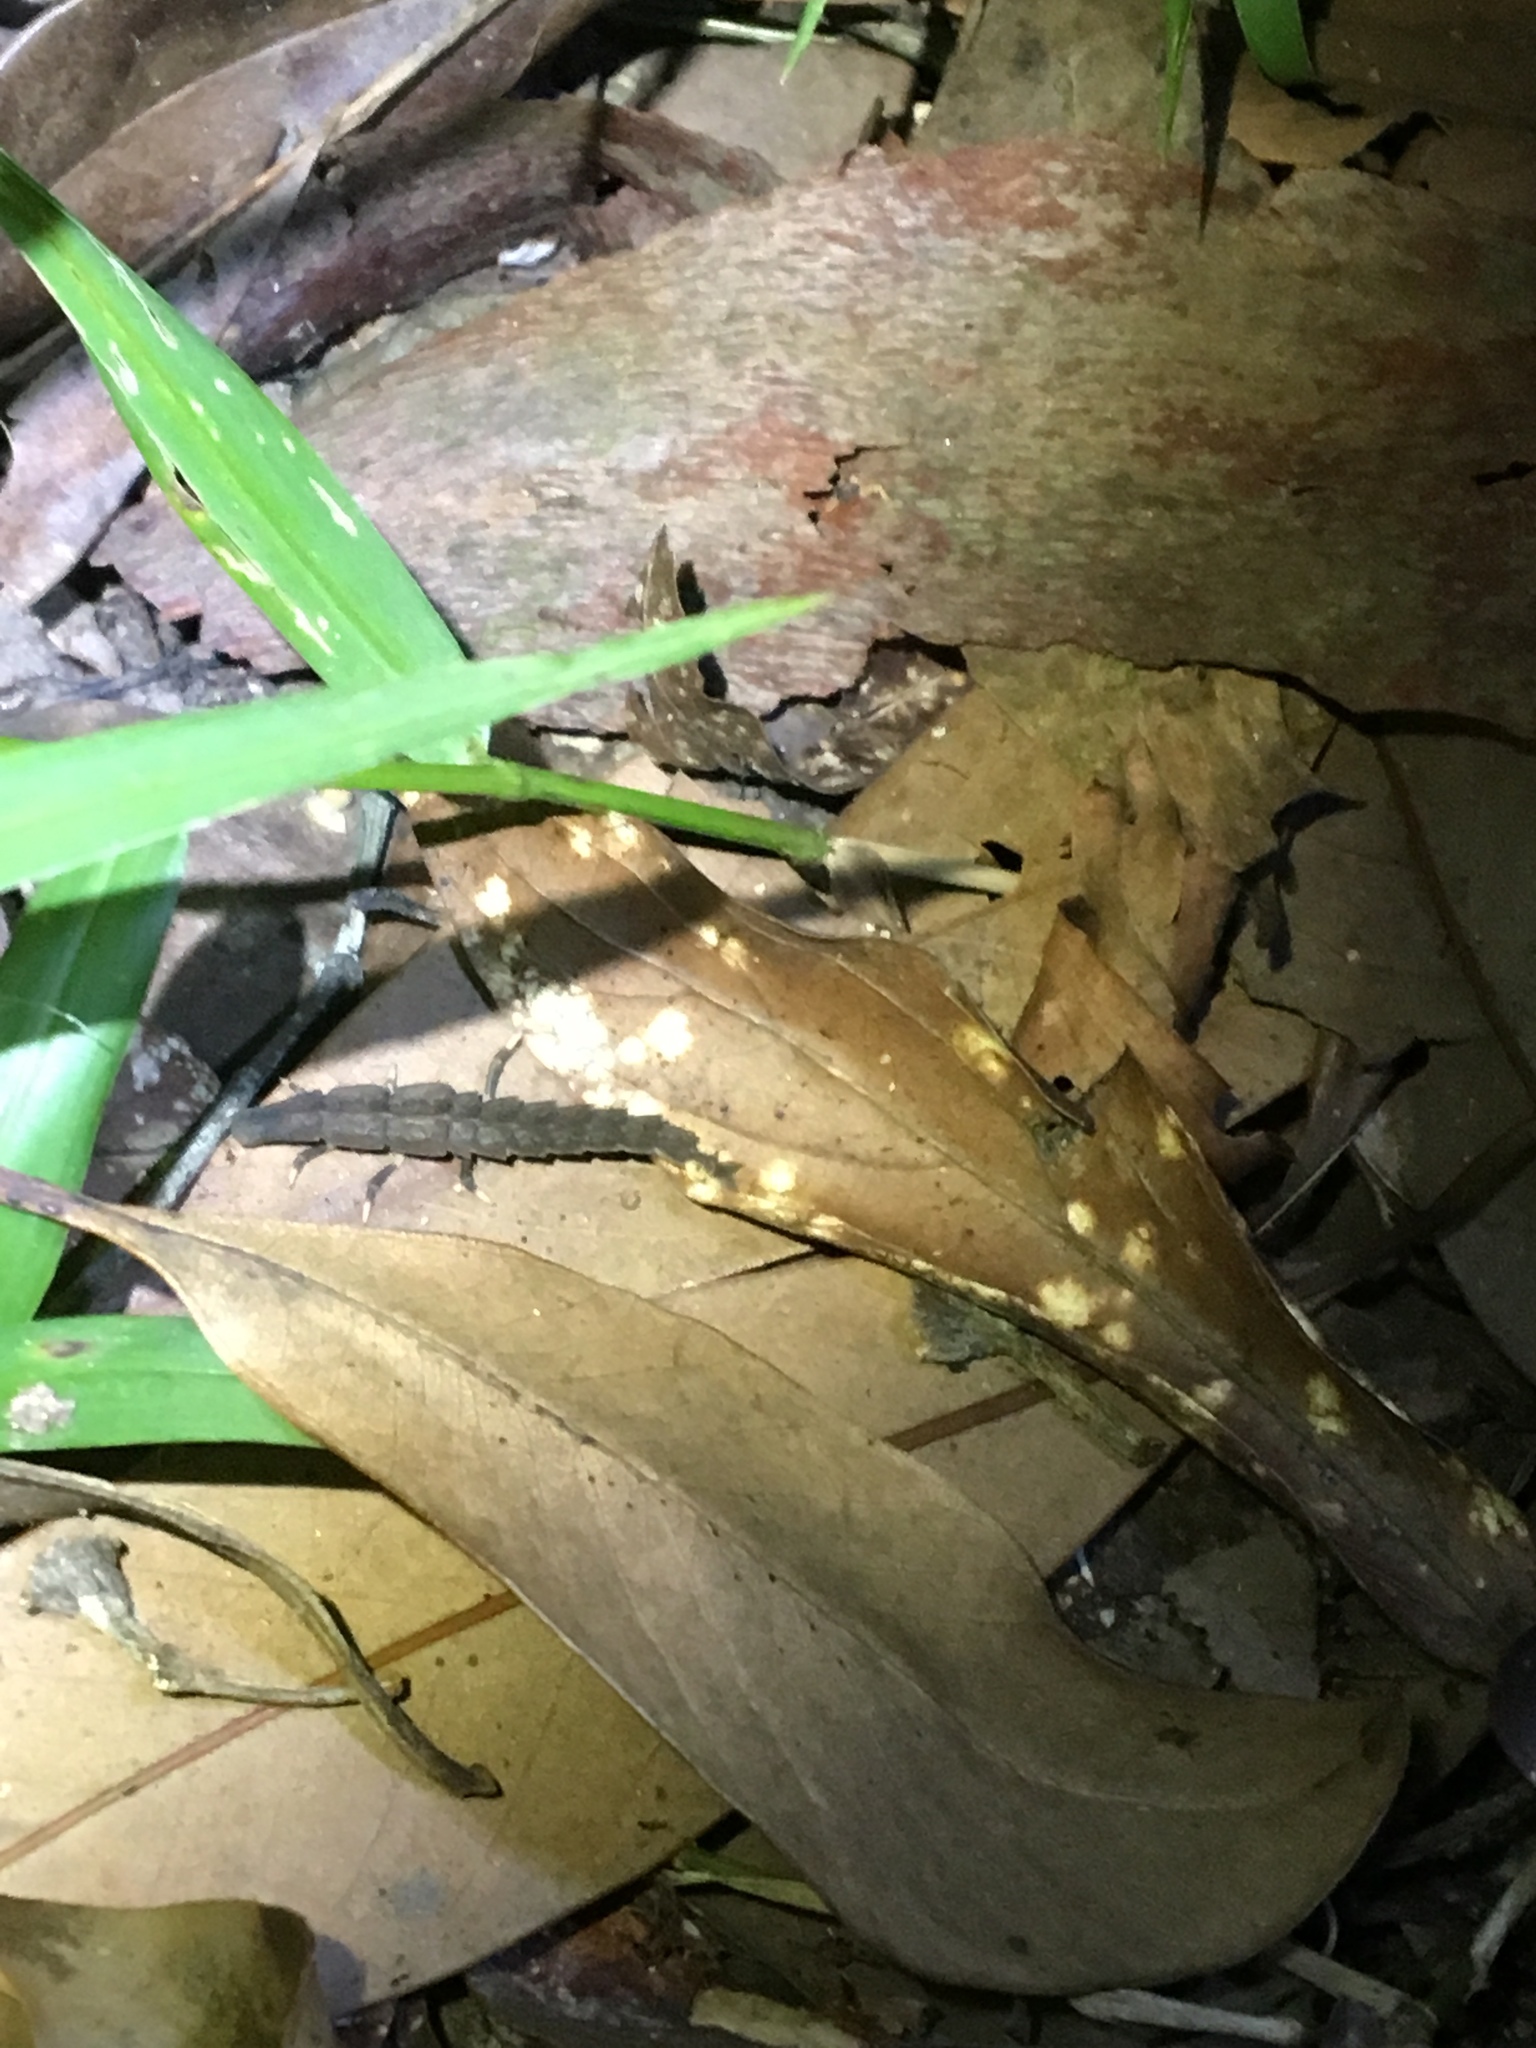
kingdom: Animalia
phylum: Arthropoda
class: Insecta
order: Coleoptera
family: Lampyridae
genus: Pyrocoelia
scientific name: Pyrocoelia lunata
